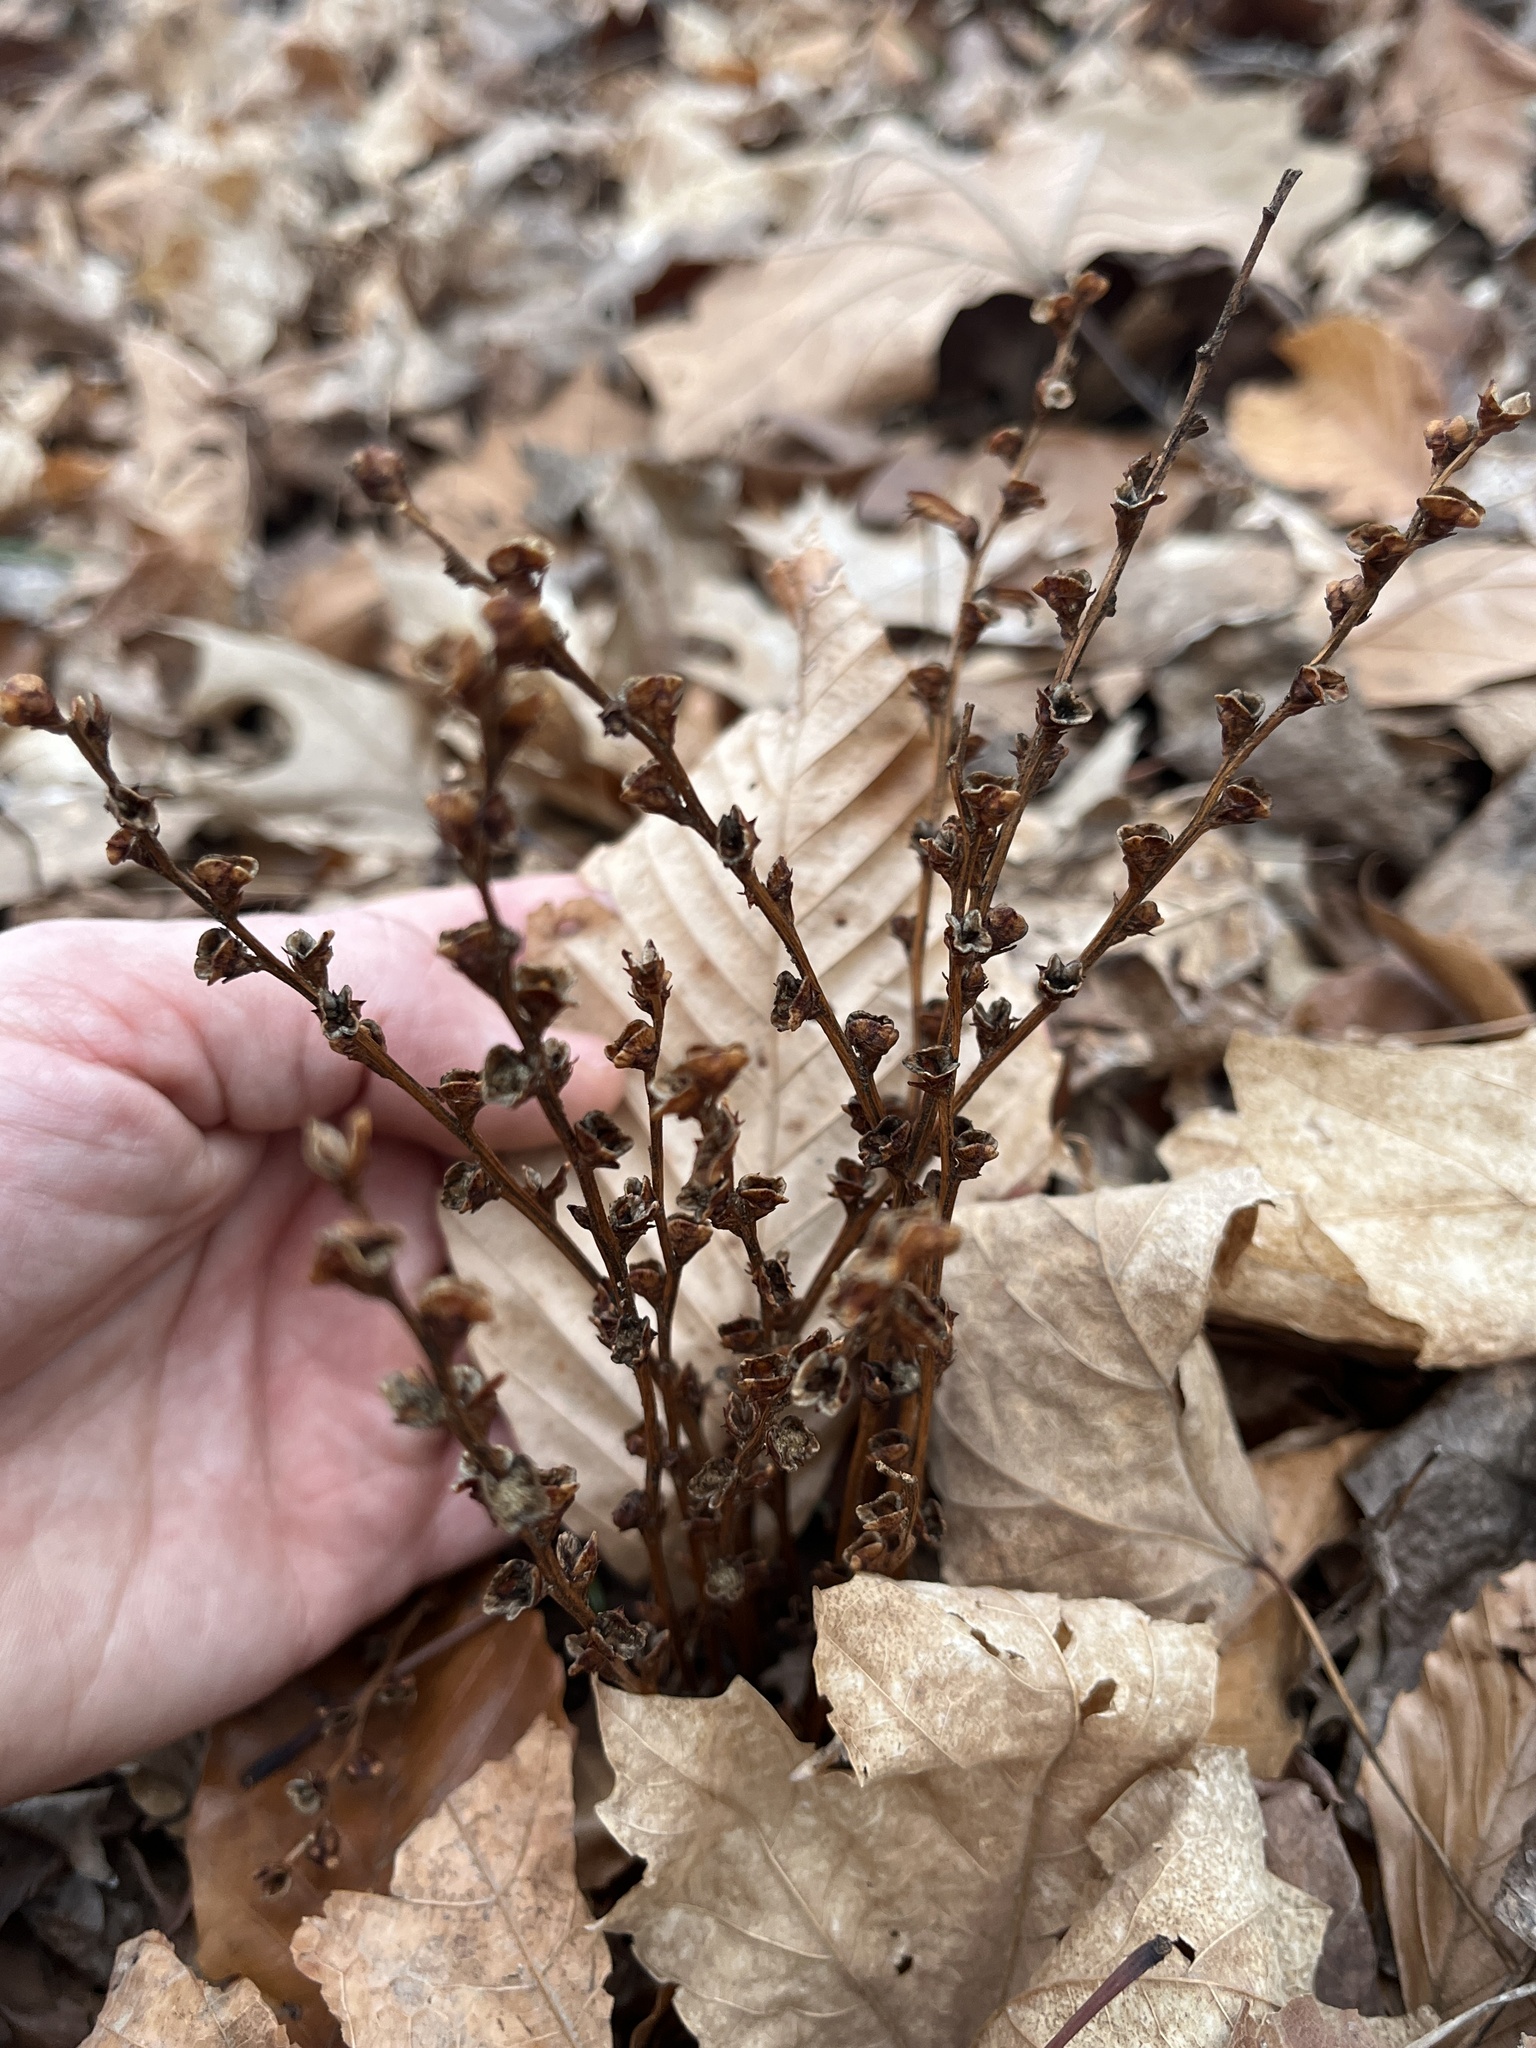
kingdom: Plantae
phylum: Tracheophyta
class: Magnoliopsida
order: Lamiales
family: Orobanchaceae
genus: Epifagus
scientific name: Epifagus virginiana
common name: Beechdrops
